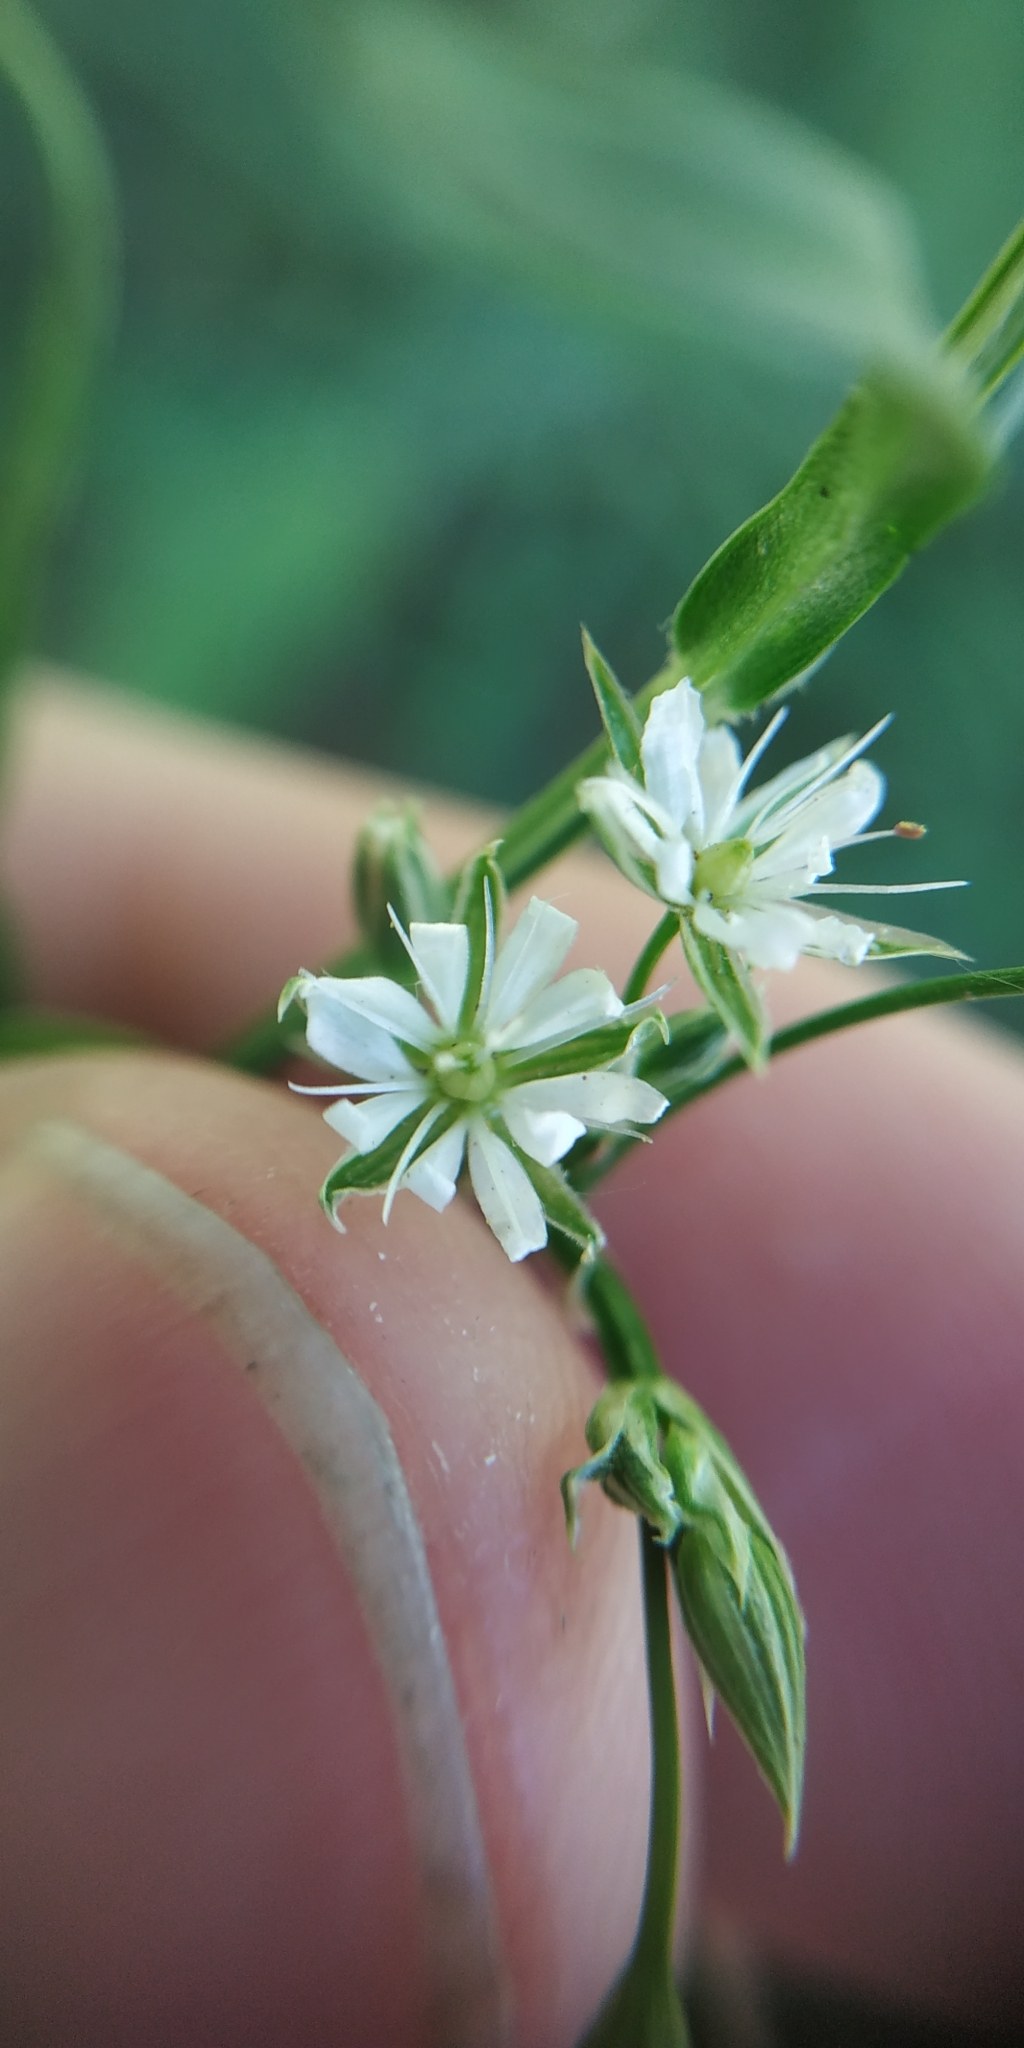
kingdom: Plantae
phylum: Tracheophyta
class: Magnoliopsida
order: Caryophyllales
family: Caryophyllaceae
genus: Stellaria
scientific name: Stellaria graminea
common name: Grass-like starwort
